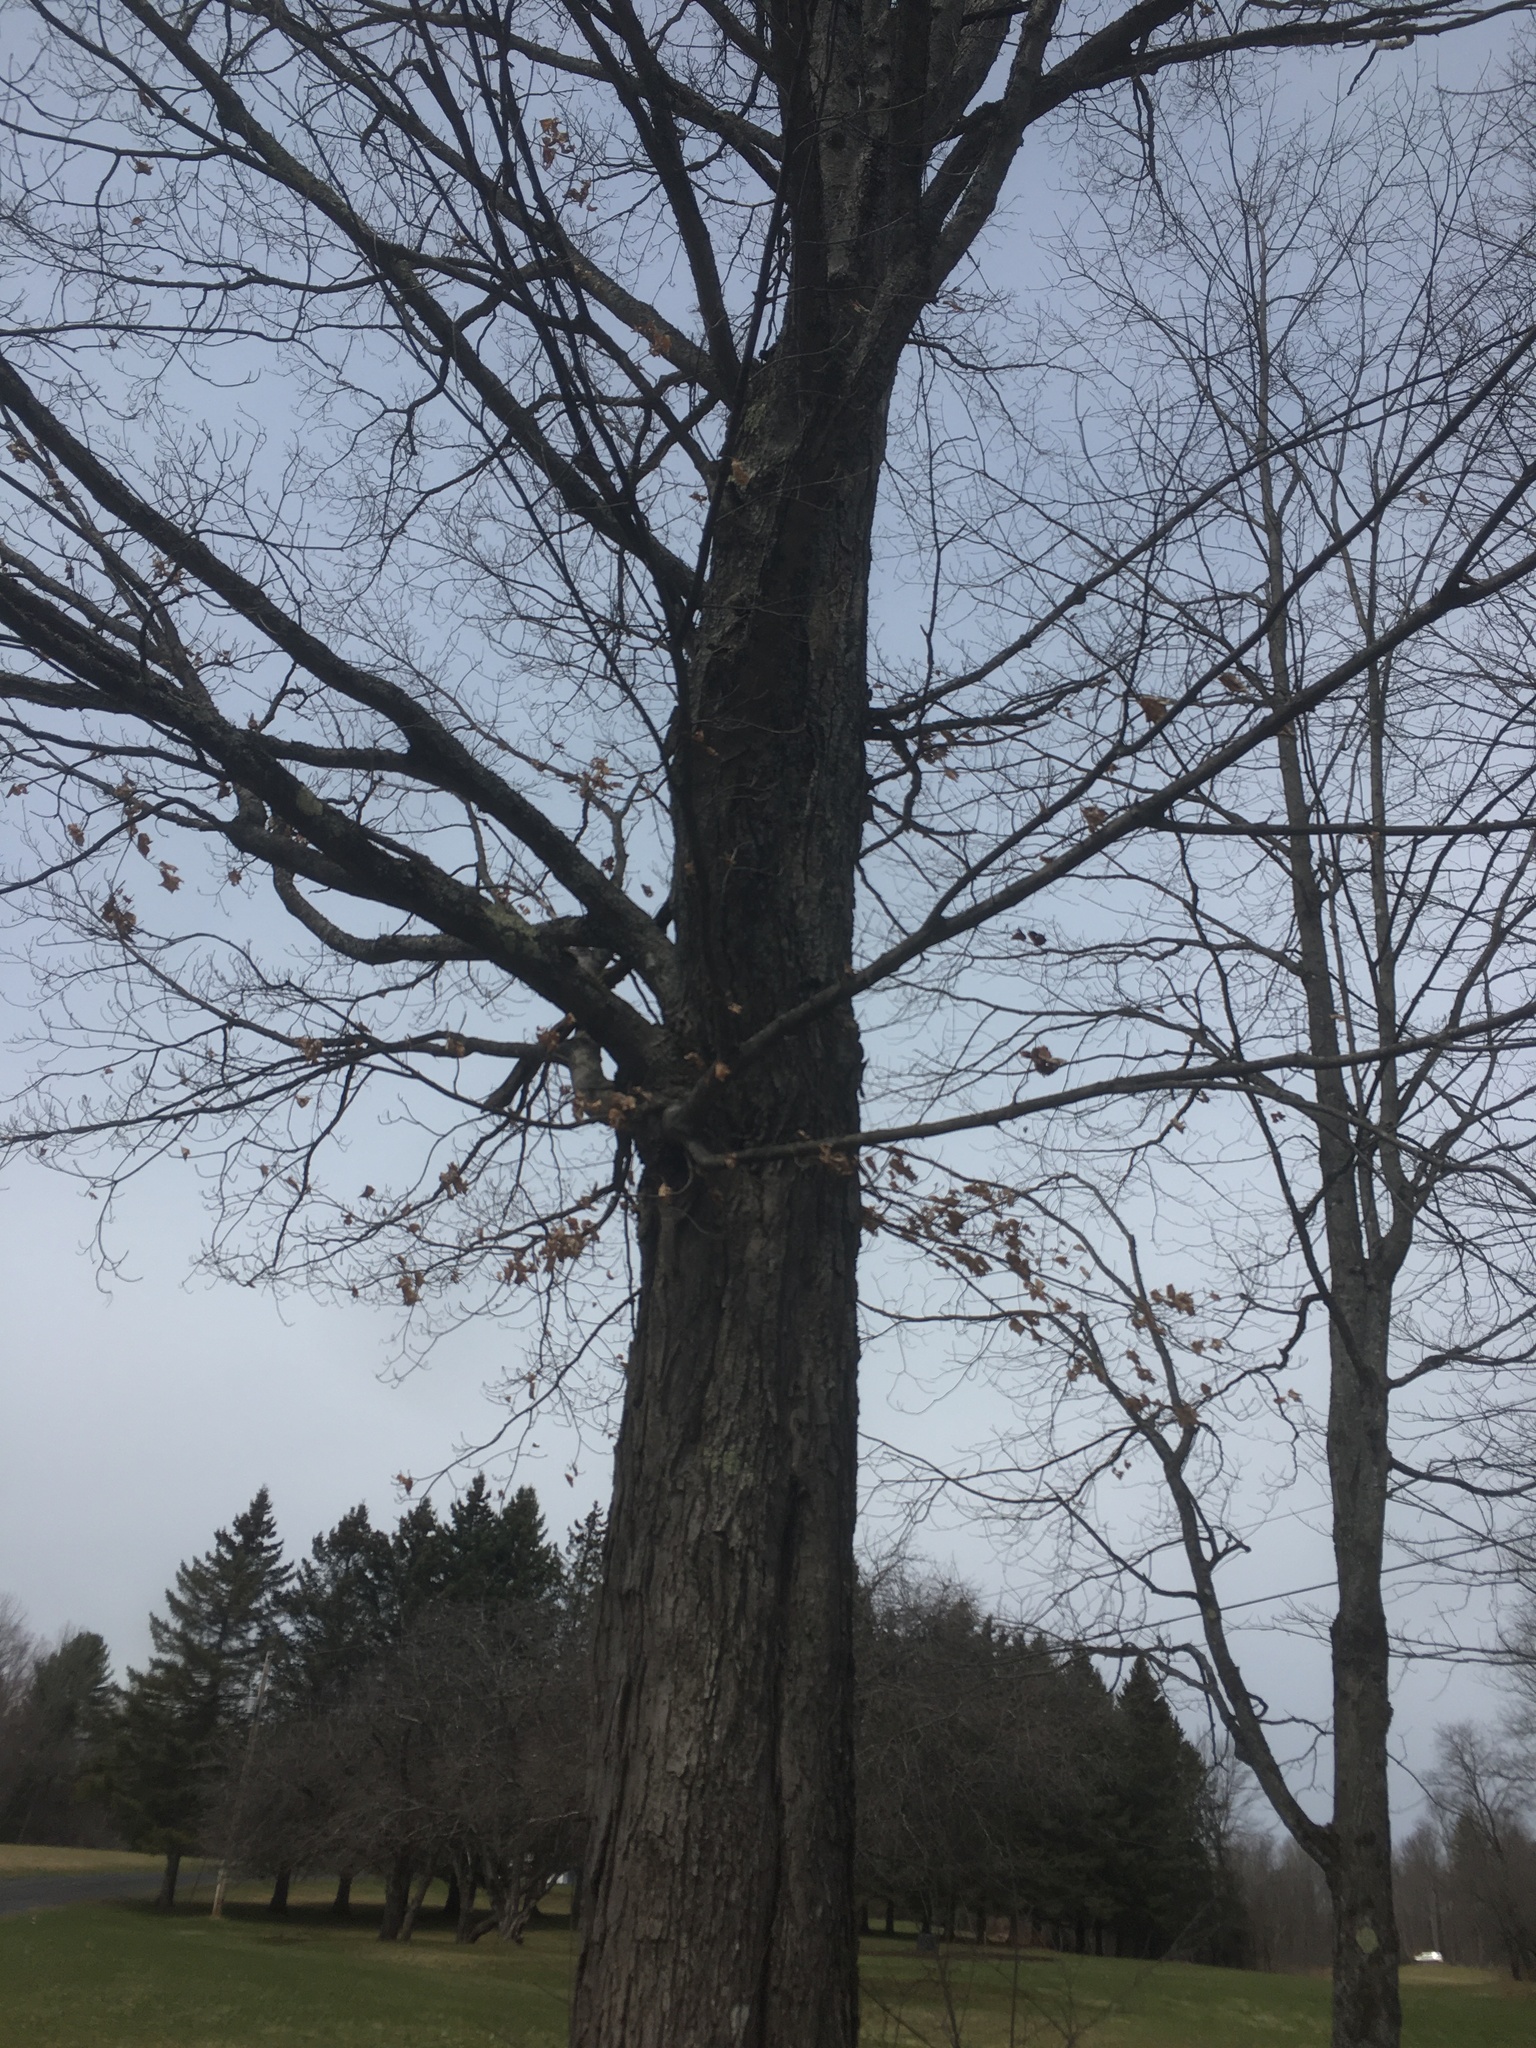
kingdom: Plantae
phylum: Tracheophyta
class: Magnoliopsida
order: Sapindales
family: Sapindaceae
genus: Acer
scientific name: Acer saccharum
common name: Sugar maple
